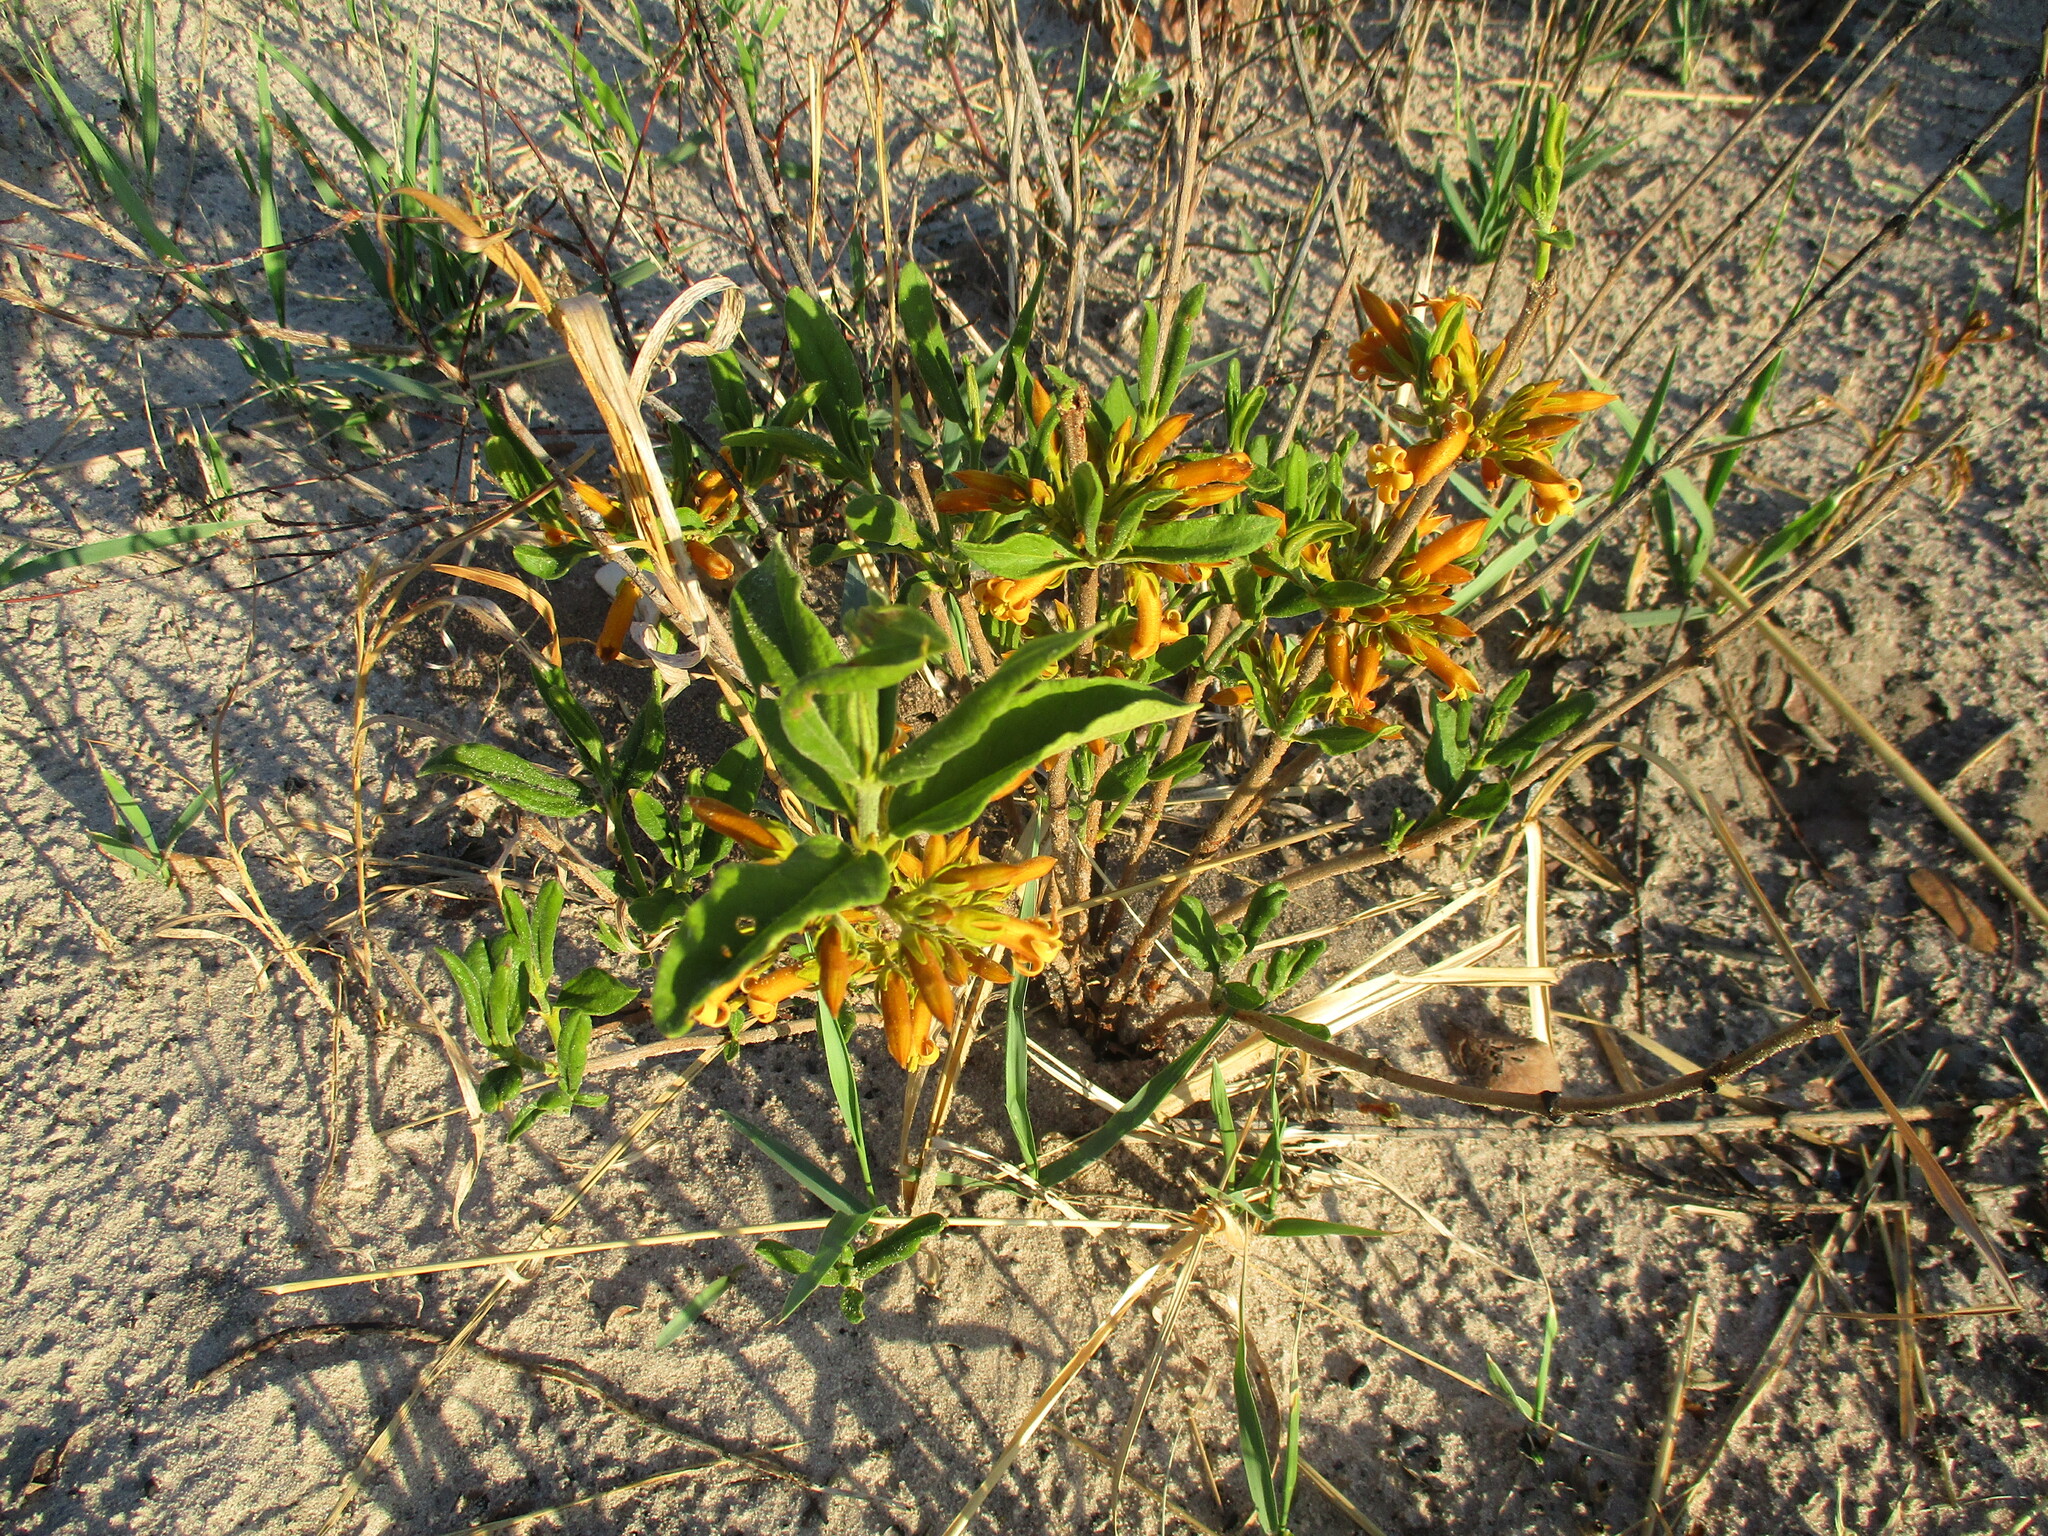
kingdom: Plantae
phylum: Tracheophyta
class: Magnoliopsida
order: Gentianales
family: Rubiaceae
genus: Vangueria
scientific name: Vangueria ferruginea
